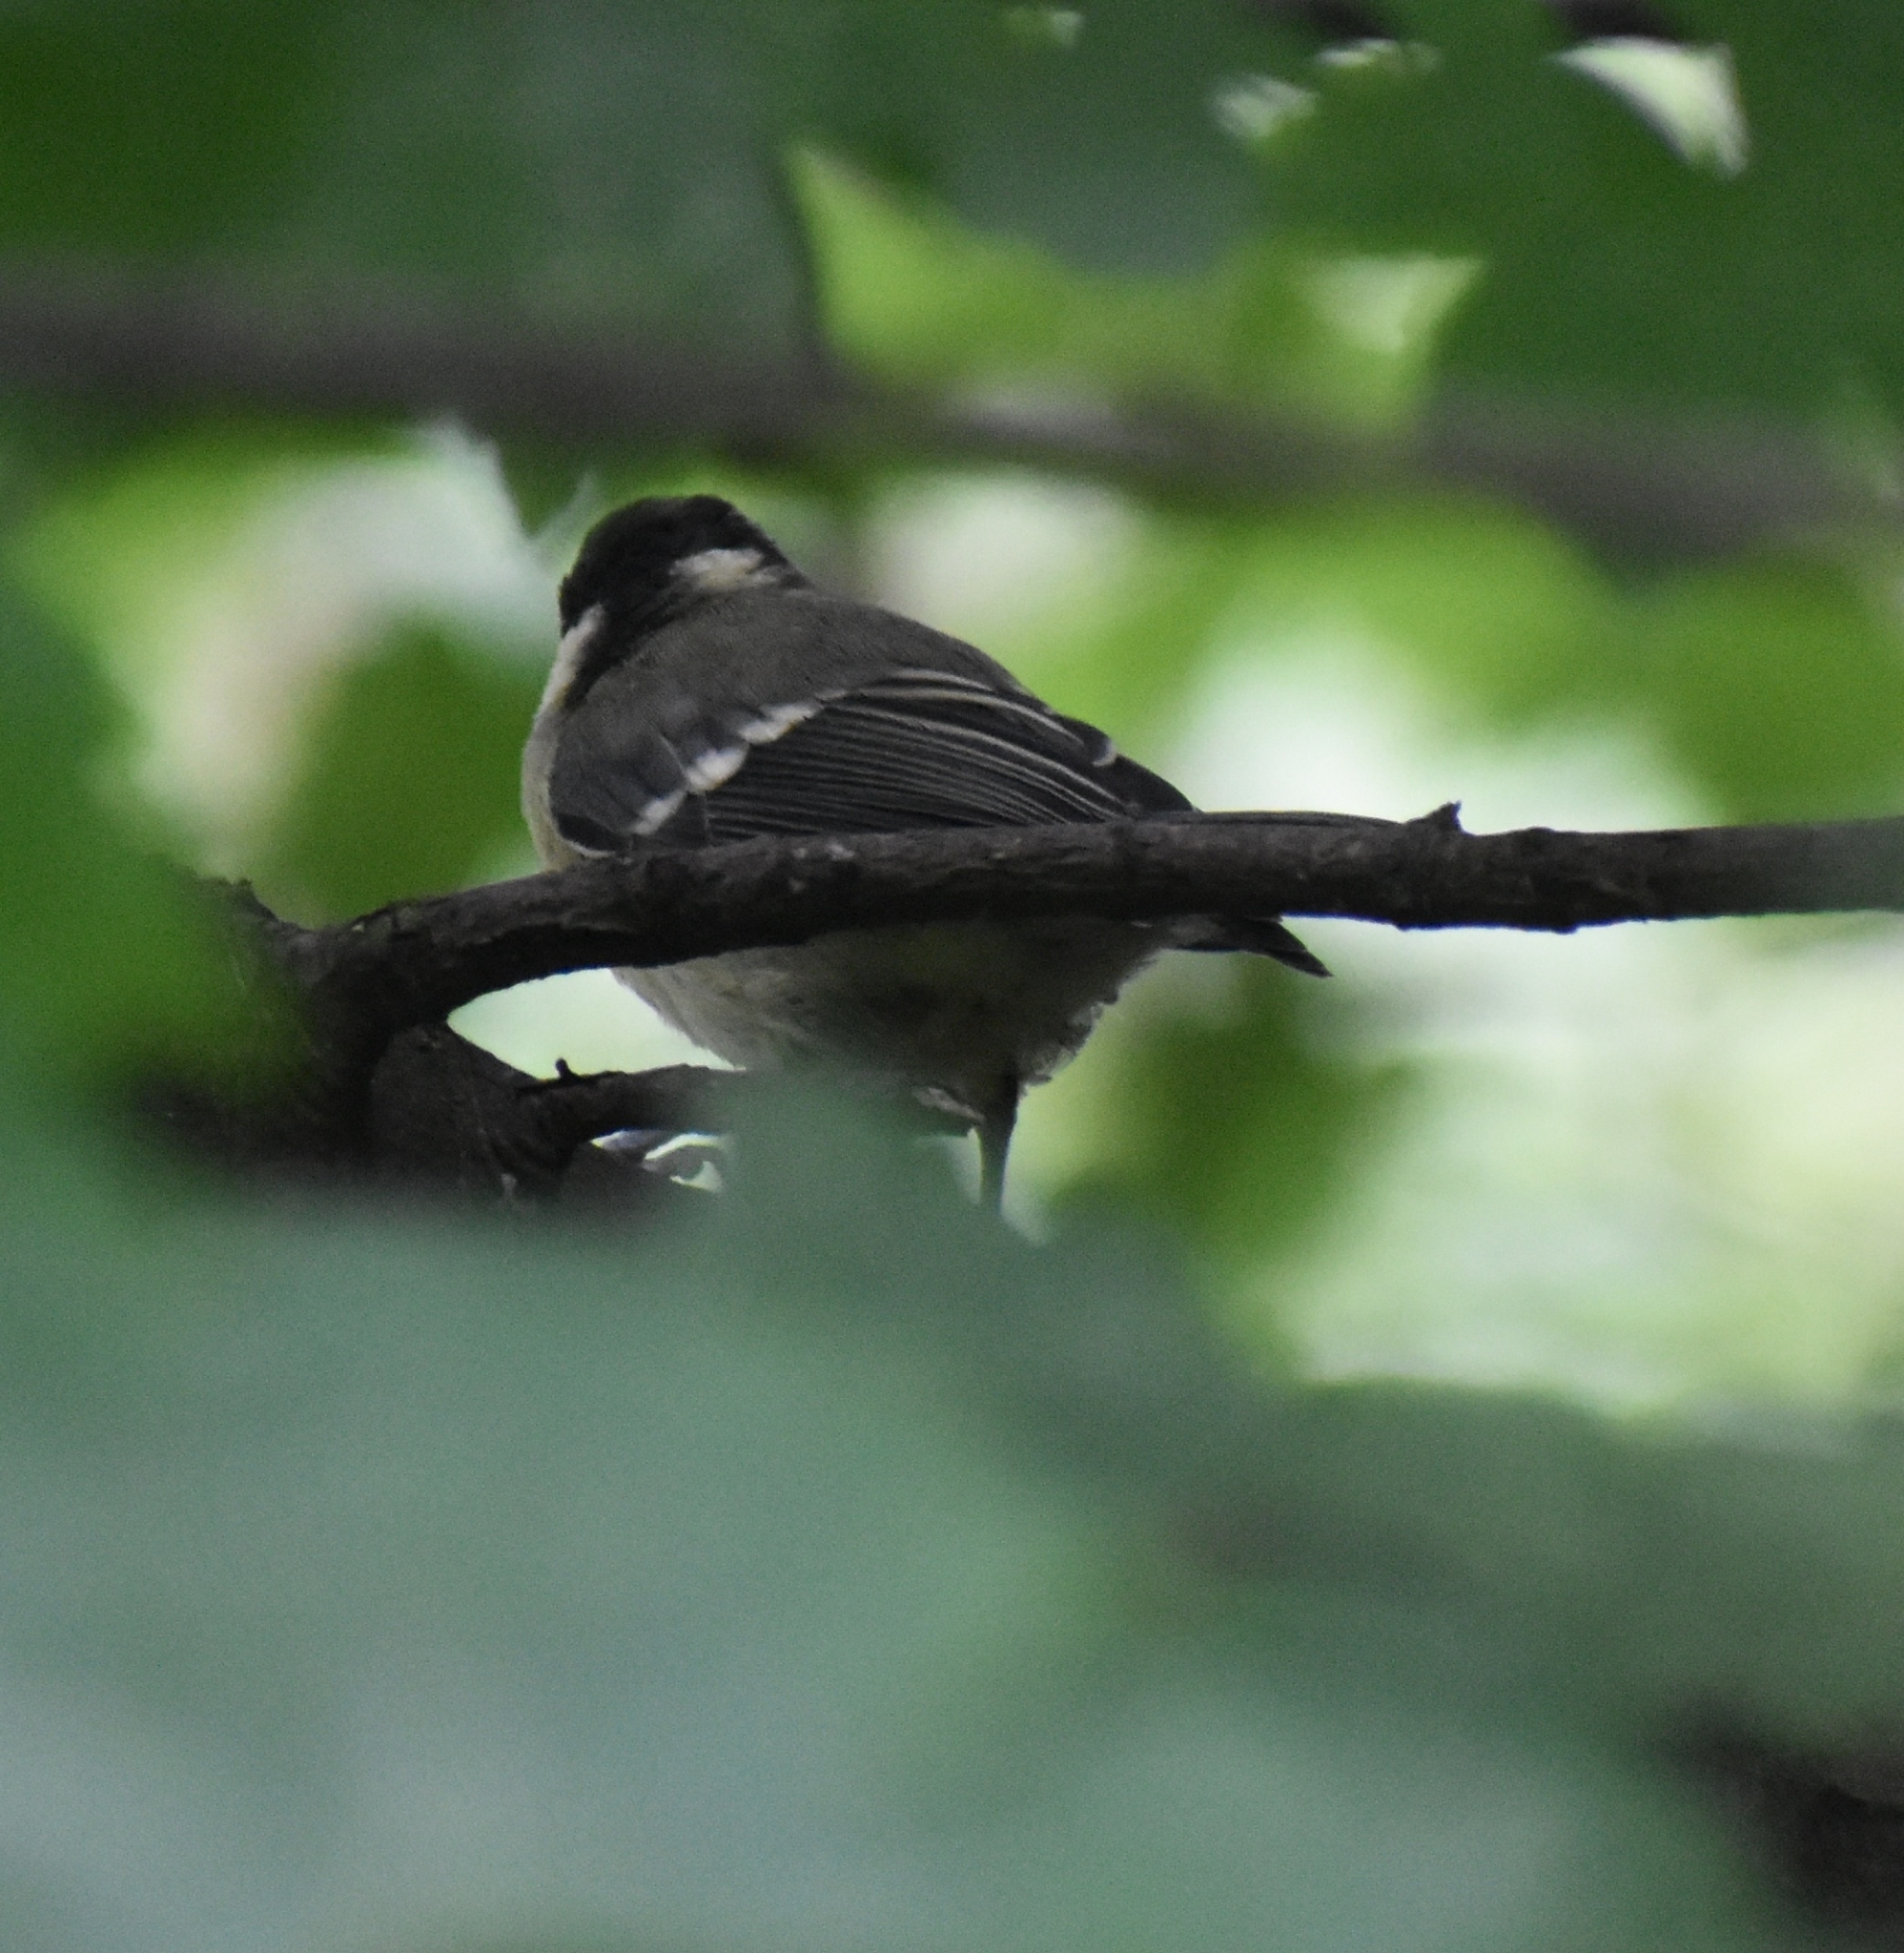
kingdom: Animalia
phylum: Chordata
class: Aves
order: Passeriformes
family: Paridae
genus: Parus
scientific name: Parus major
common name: Great tit
